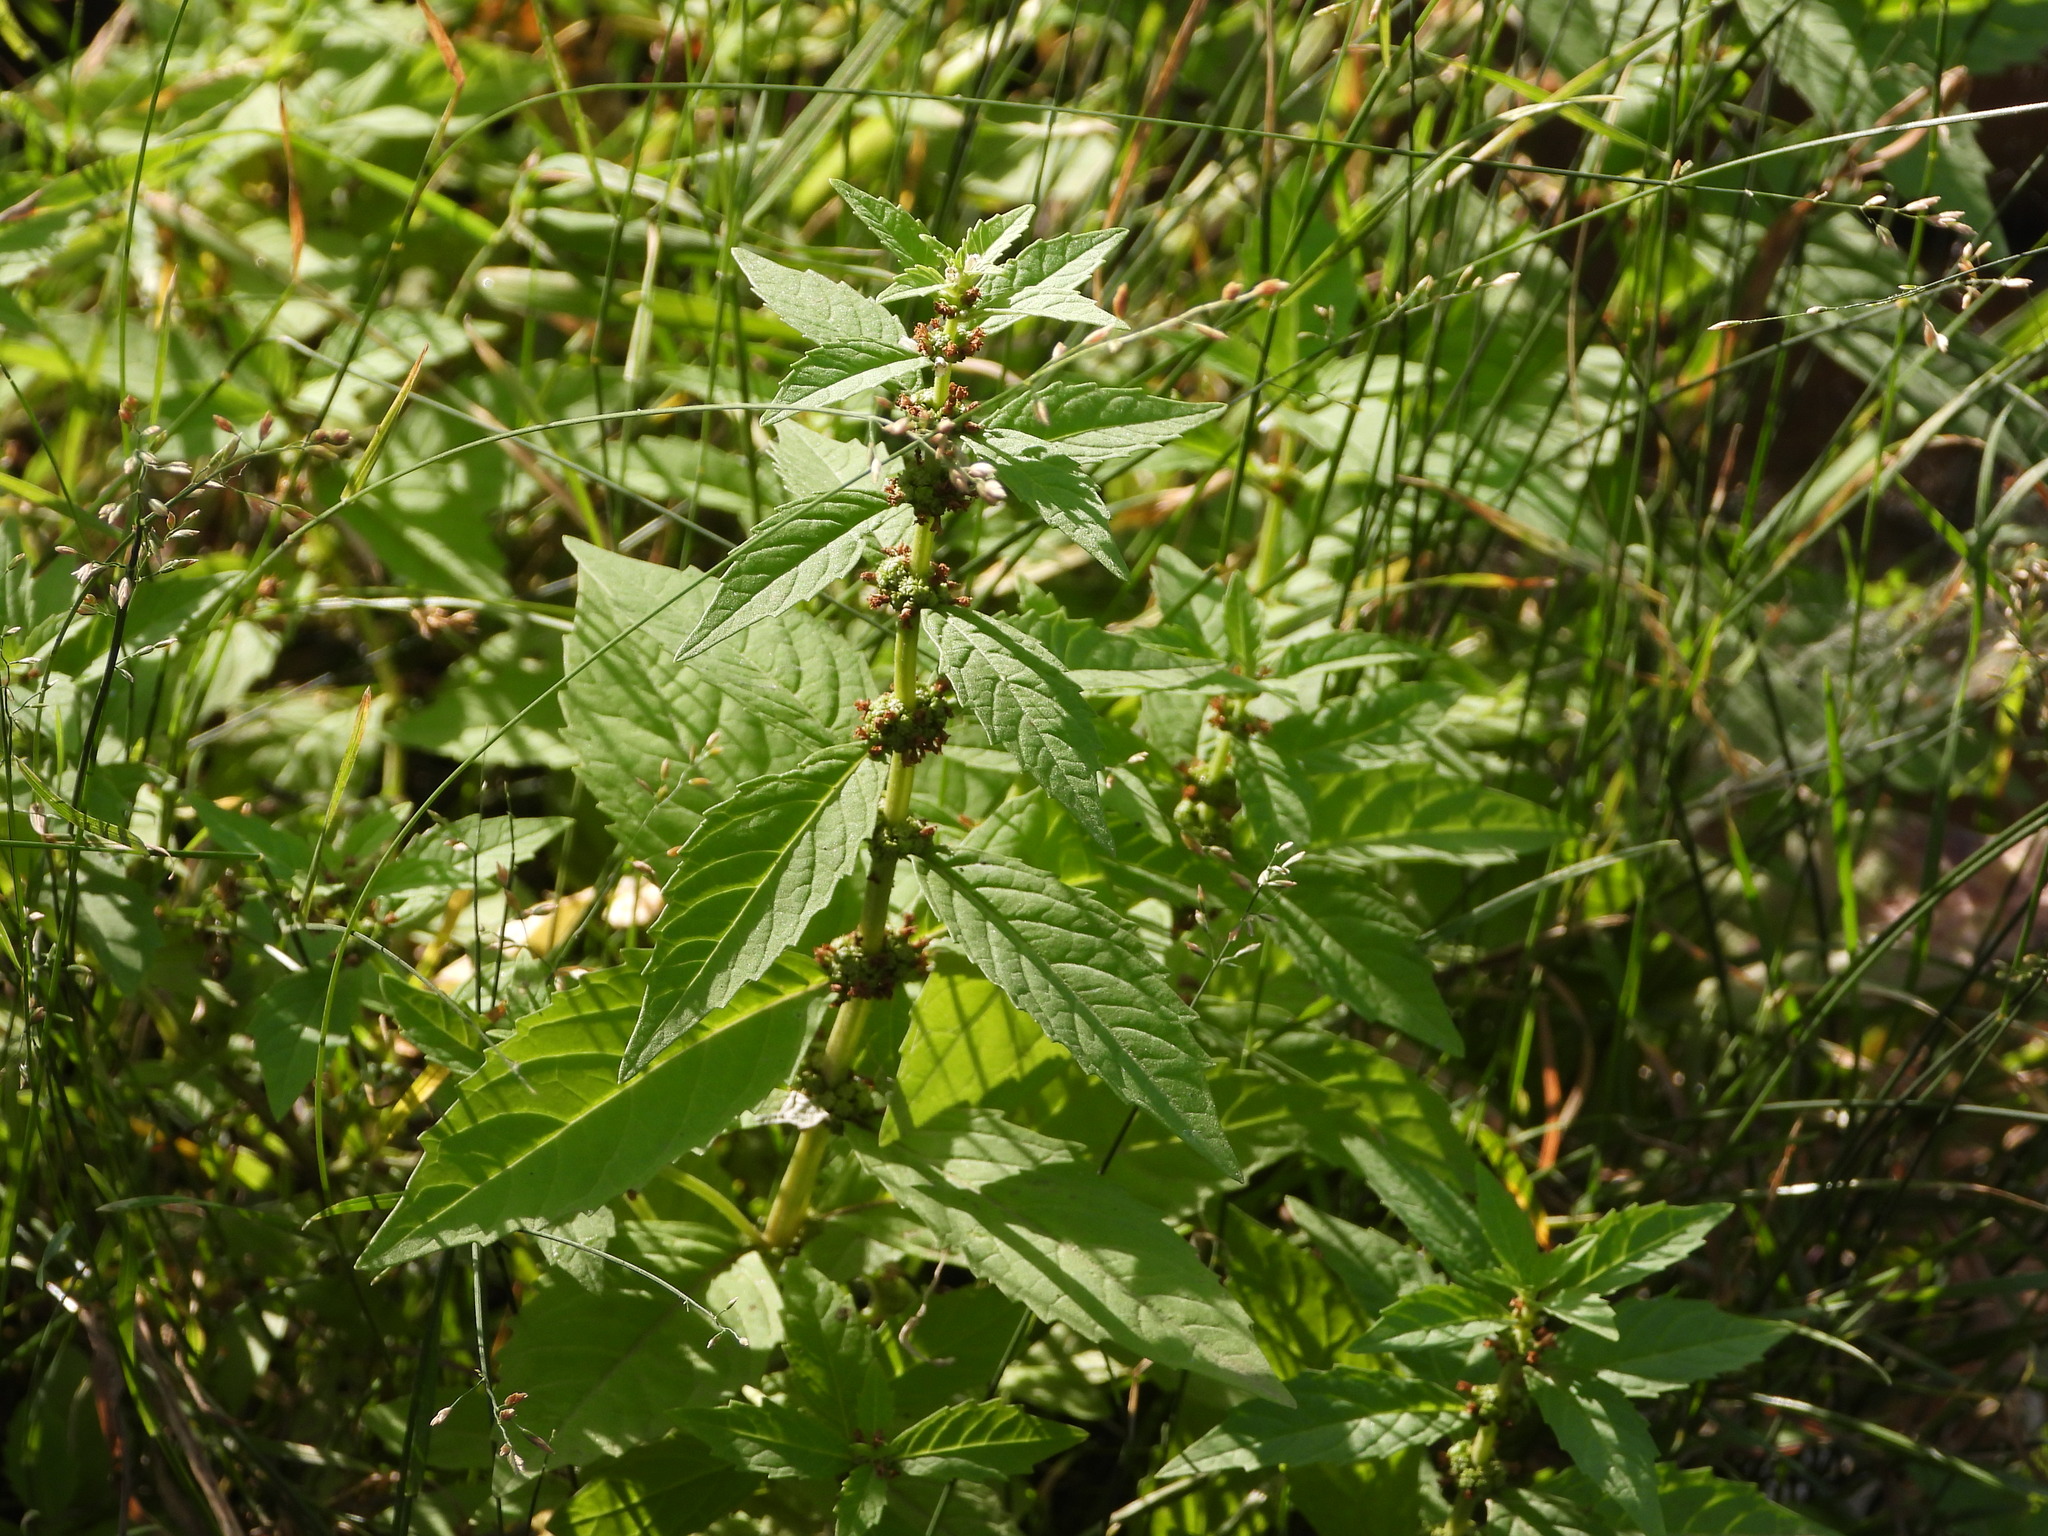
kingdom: Plantae
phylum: Tracheophyta
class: Magnoliopsida
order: Lamiales
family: Lamiaceae
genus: Lycopus
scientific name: Lycopus americanus
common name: American bugleweed
